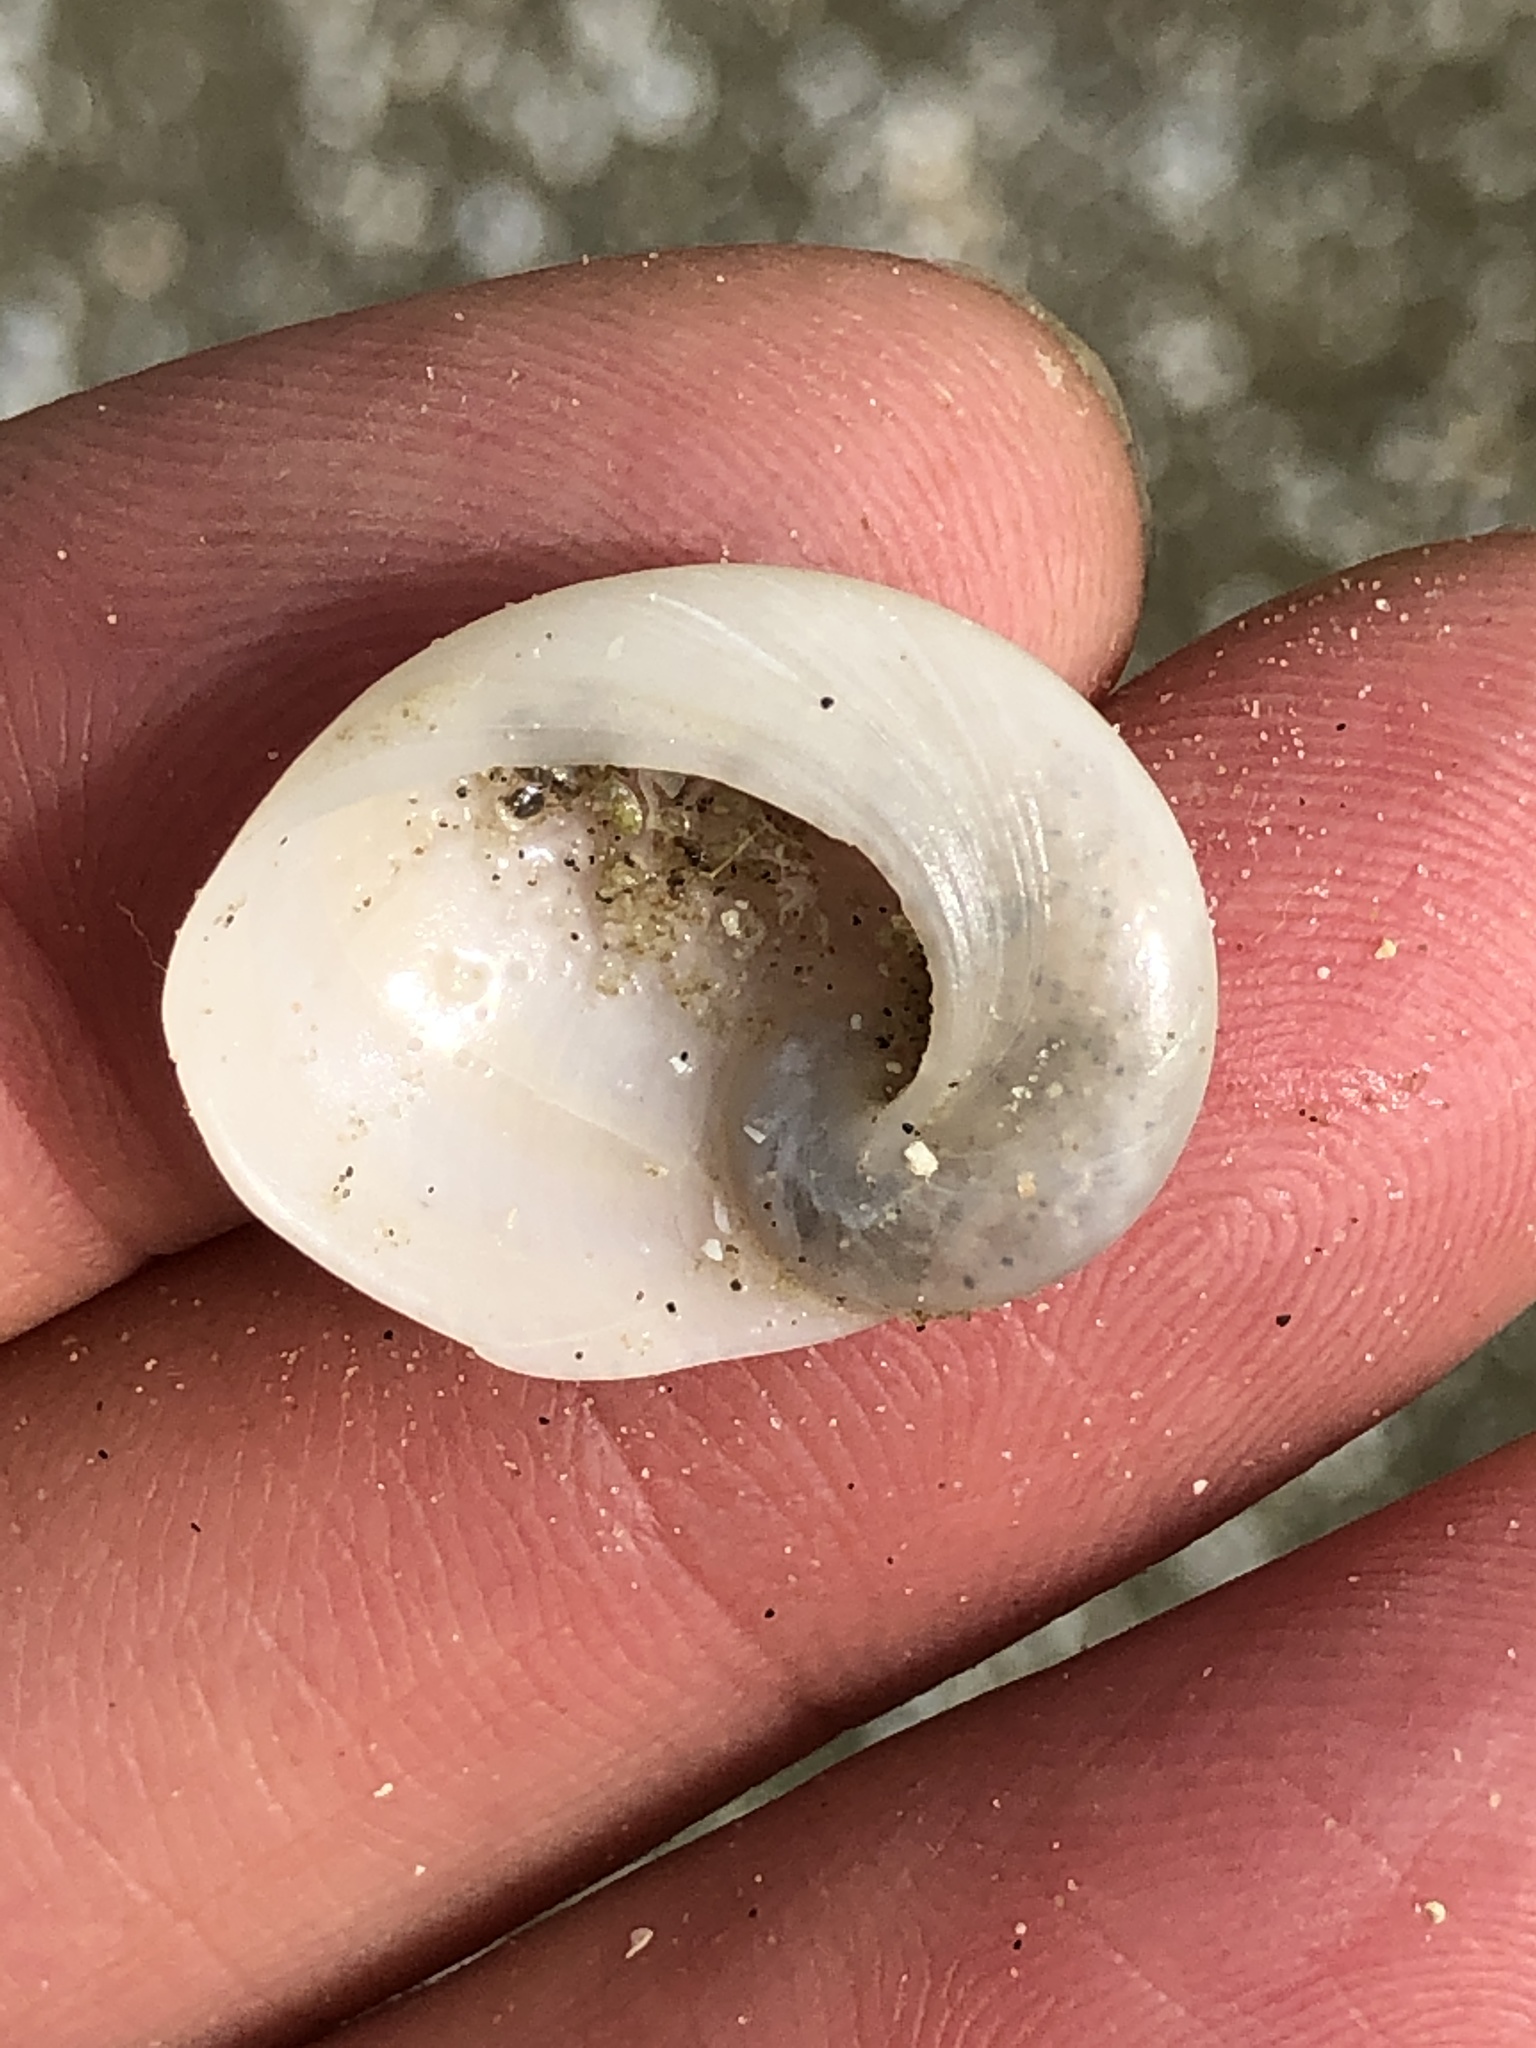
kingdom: Animalia
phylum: Mollusca
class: Gastropoda
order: Littorinimorpha
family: Naticidae
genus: Sinum
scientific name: Sinum perspectivum
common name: White baby ear
